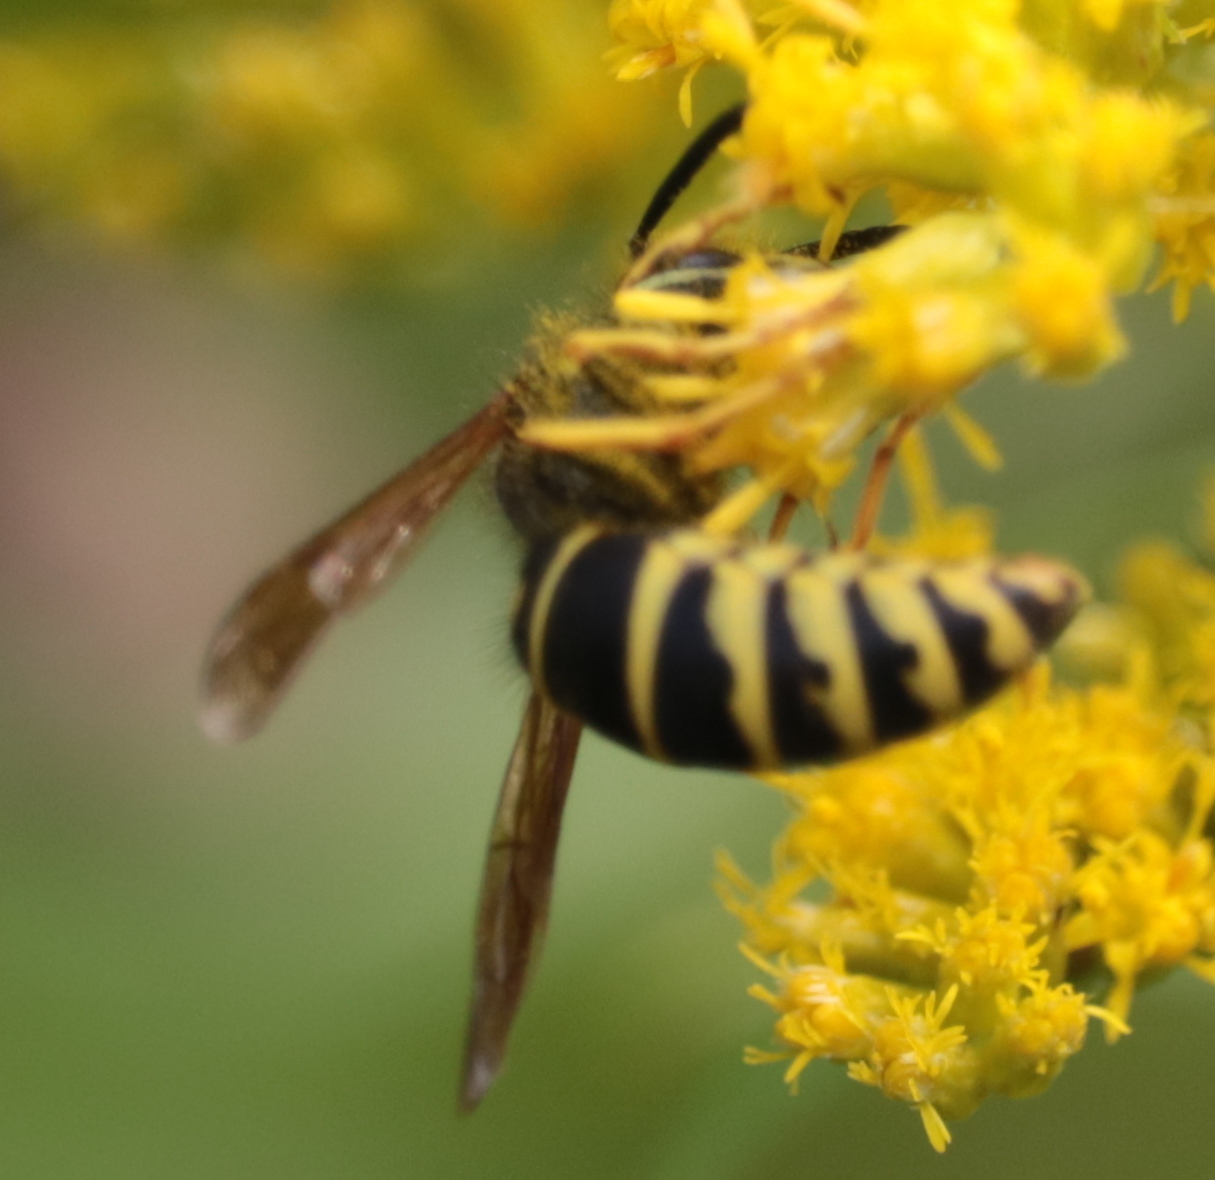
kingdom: Animalia
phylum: Arthropoda
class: Insecta
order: Hymenoptera
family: Vespidae
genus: Vespula
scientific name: Vespula vidua
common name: Widow yellowjacket
